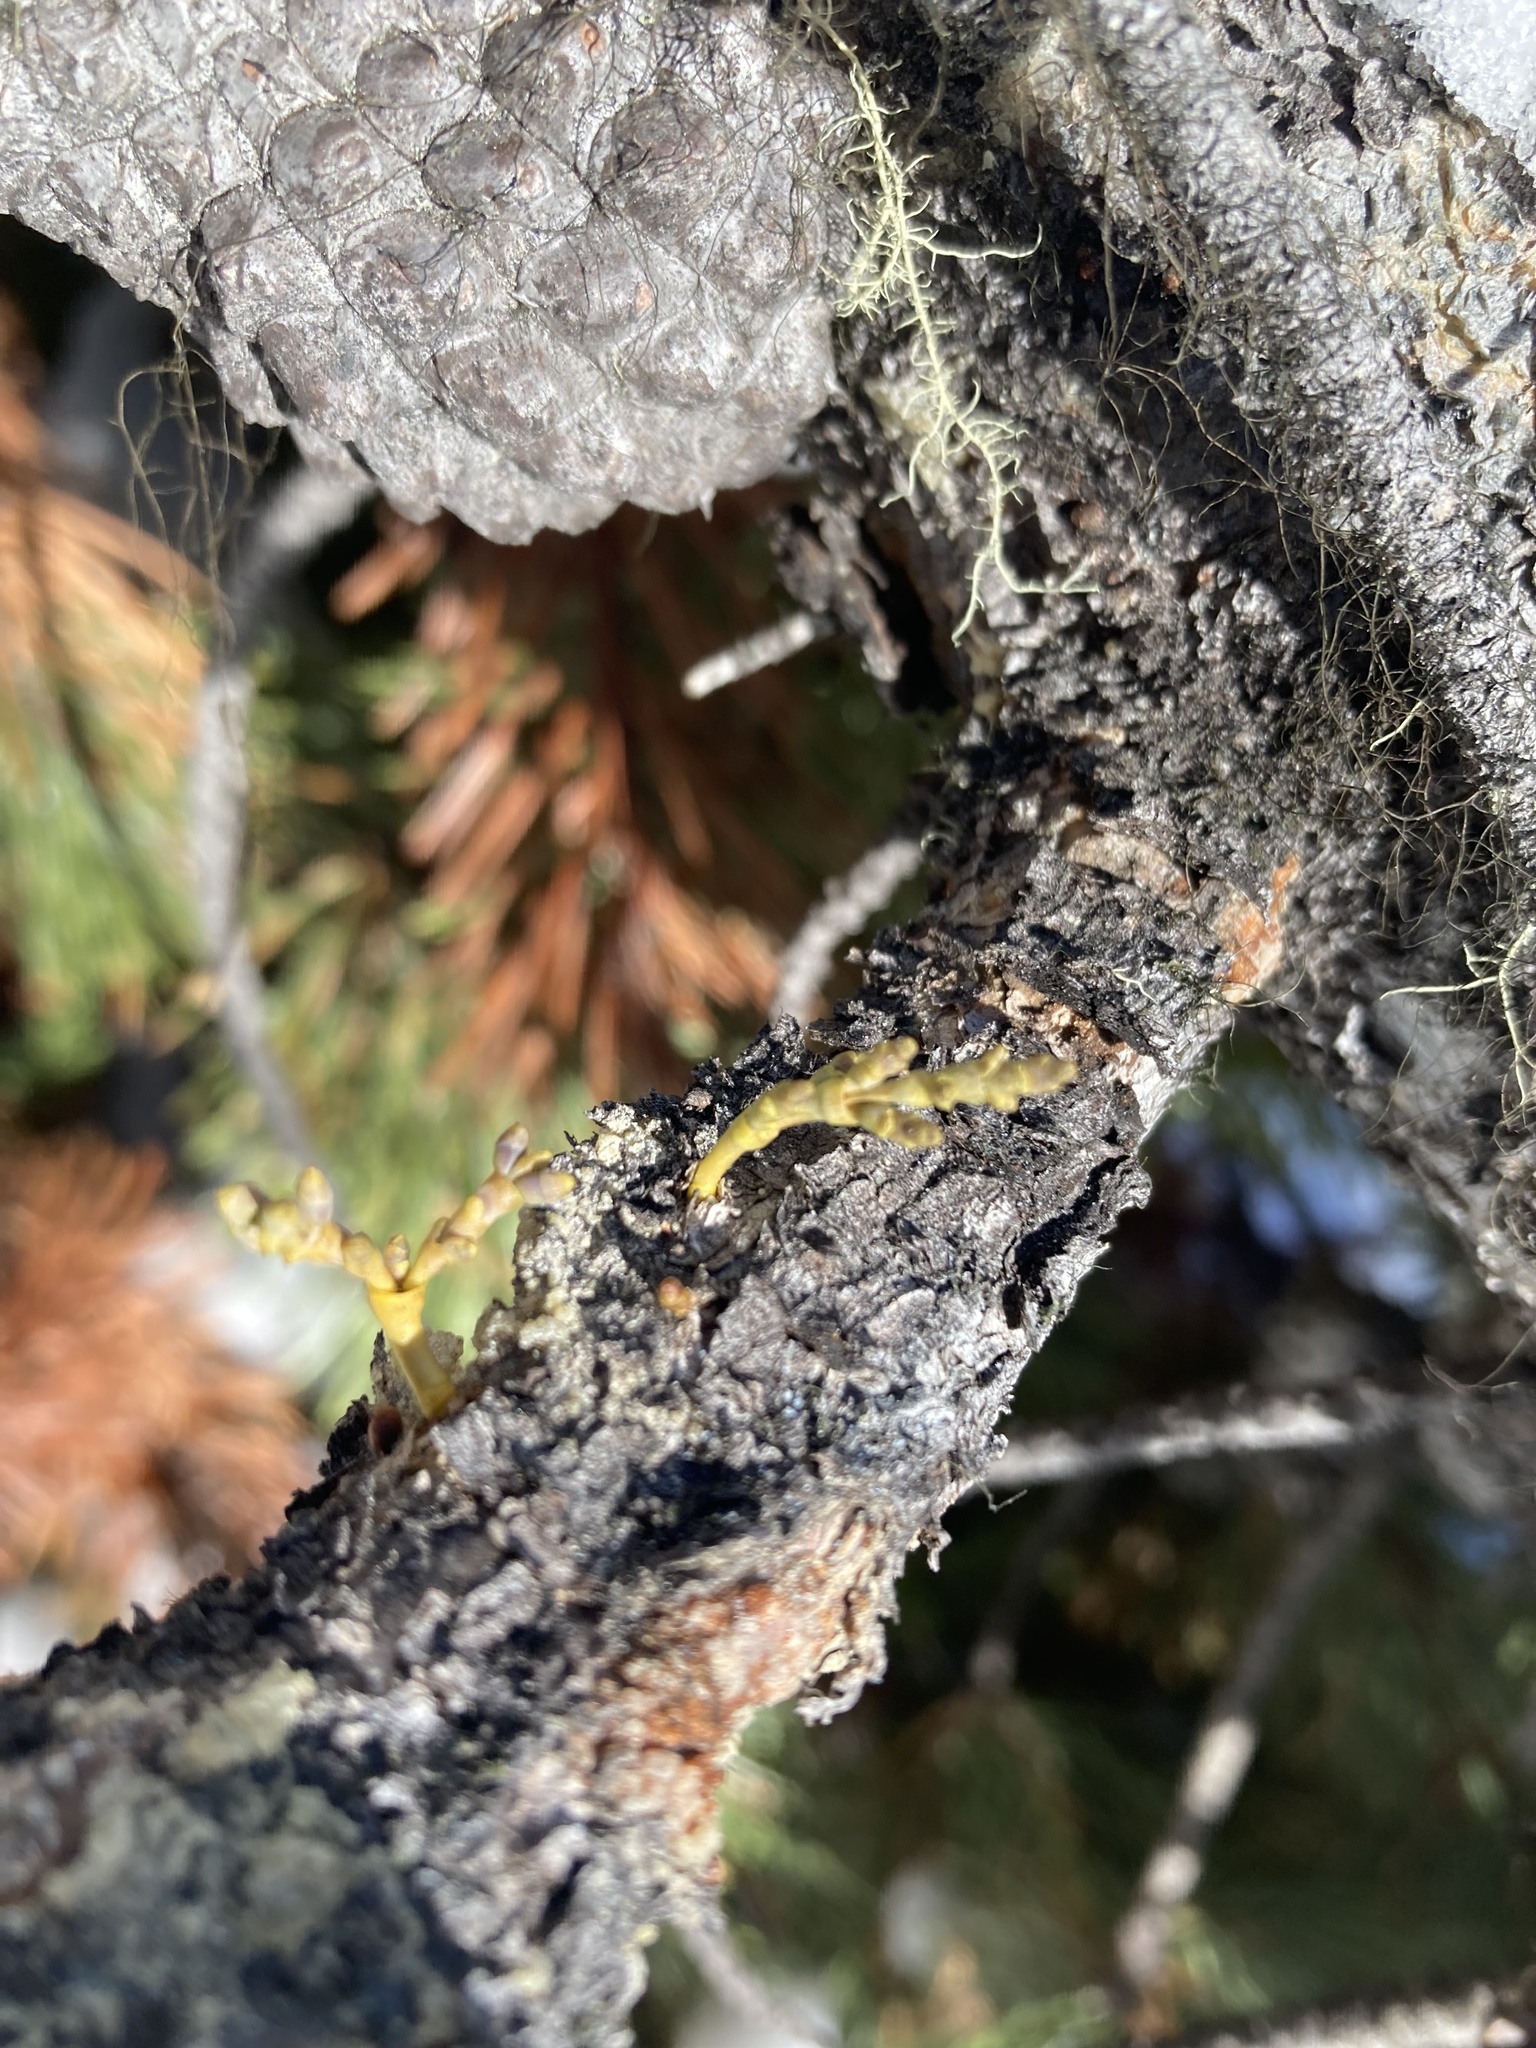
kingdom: Plantae
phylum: Tracheophyta
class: Magnoliopsida
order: Santalales
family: Viscaceae
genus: Arceuthobium
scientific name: Arceuthobium americanum
